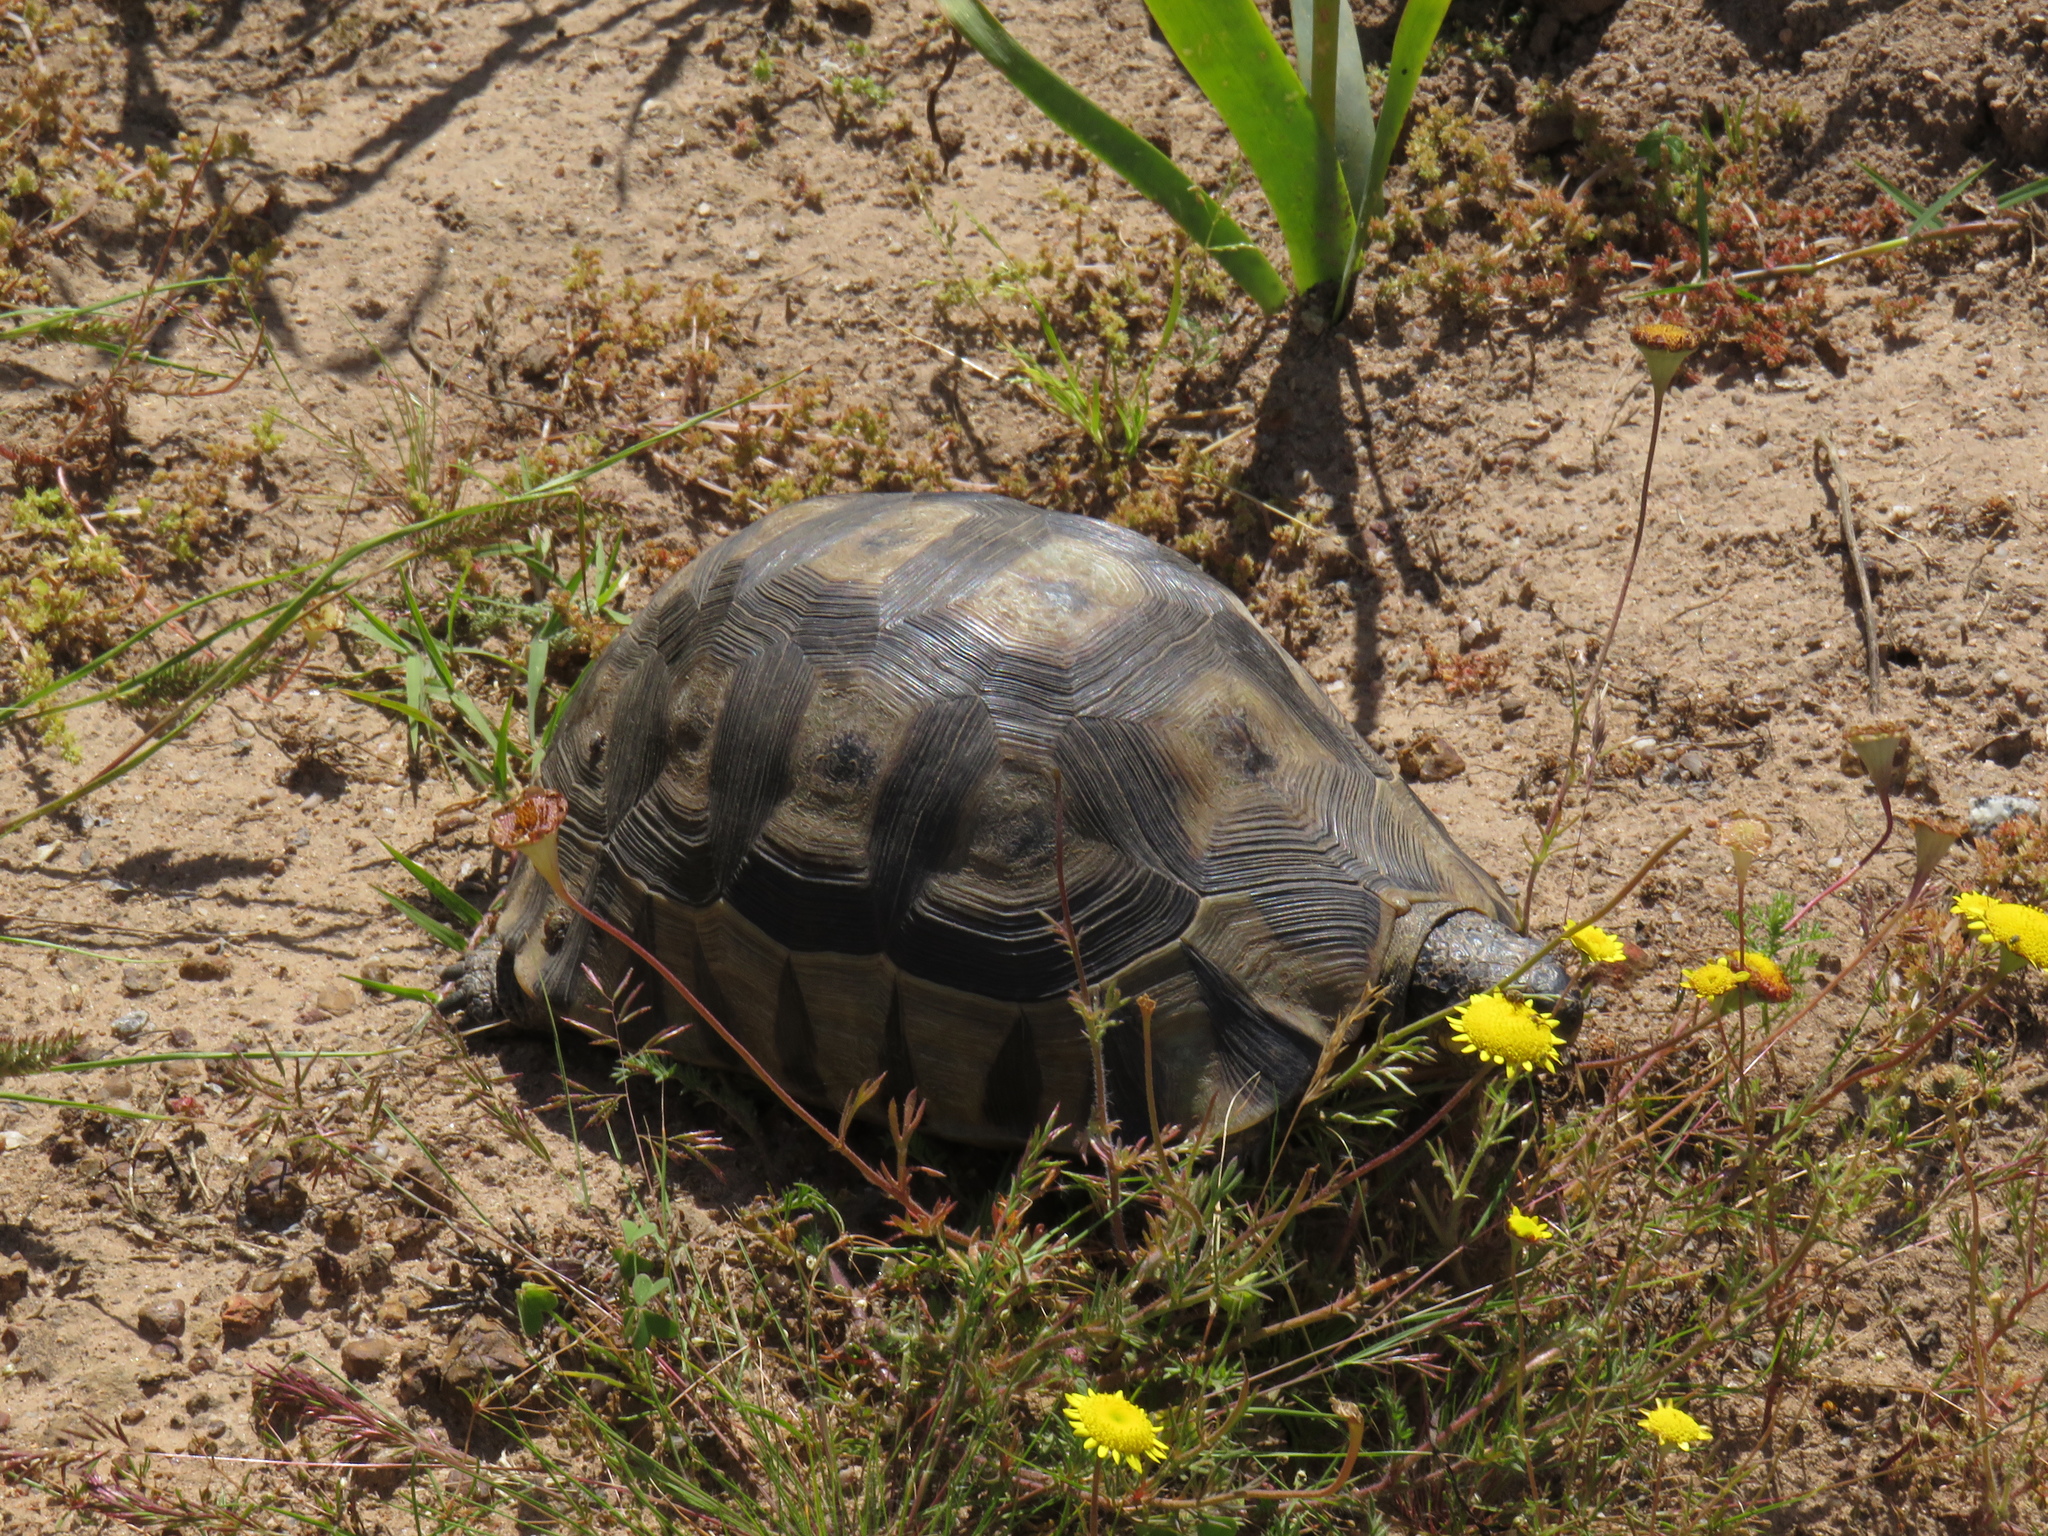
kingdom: Animalia
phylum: Chordata
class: Testudines
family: Testudinidae
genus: Chersina
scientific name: Chersina angulata
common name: South african bowsprit tortoise
